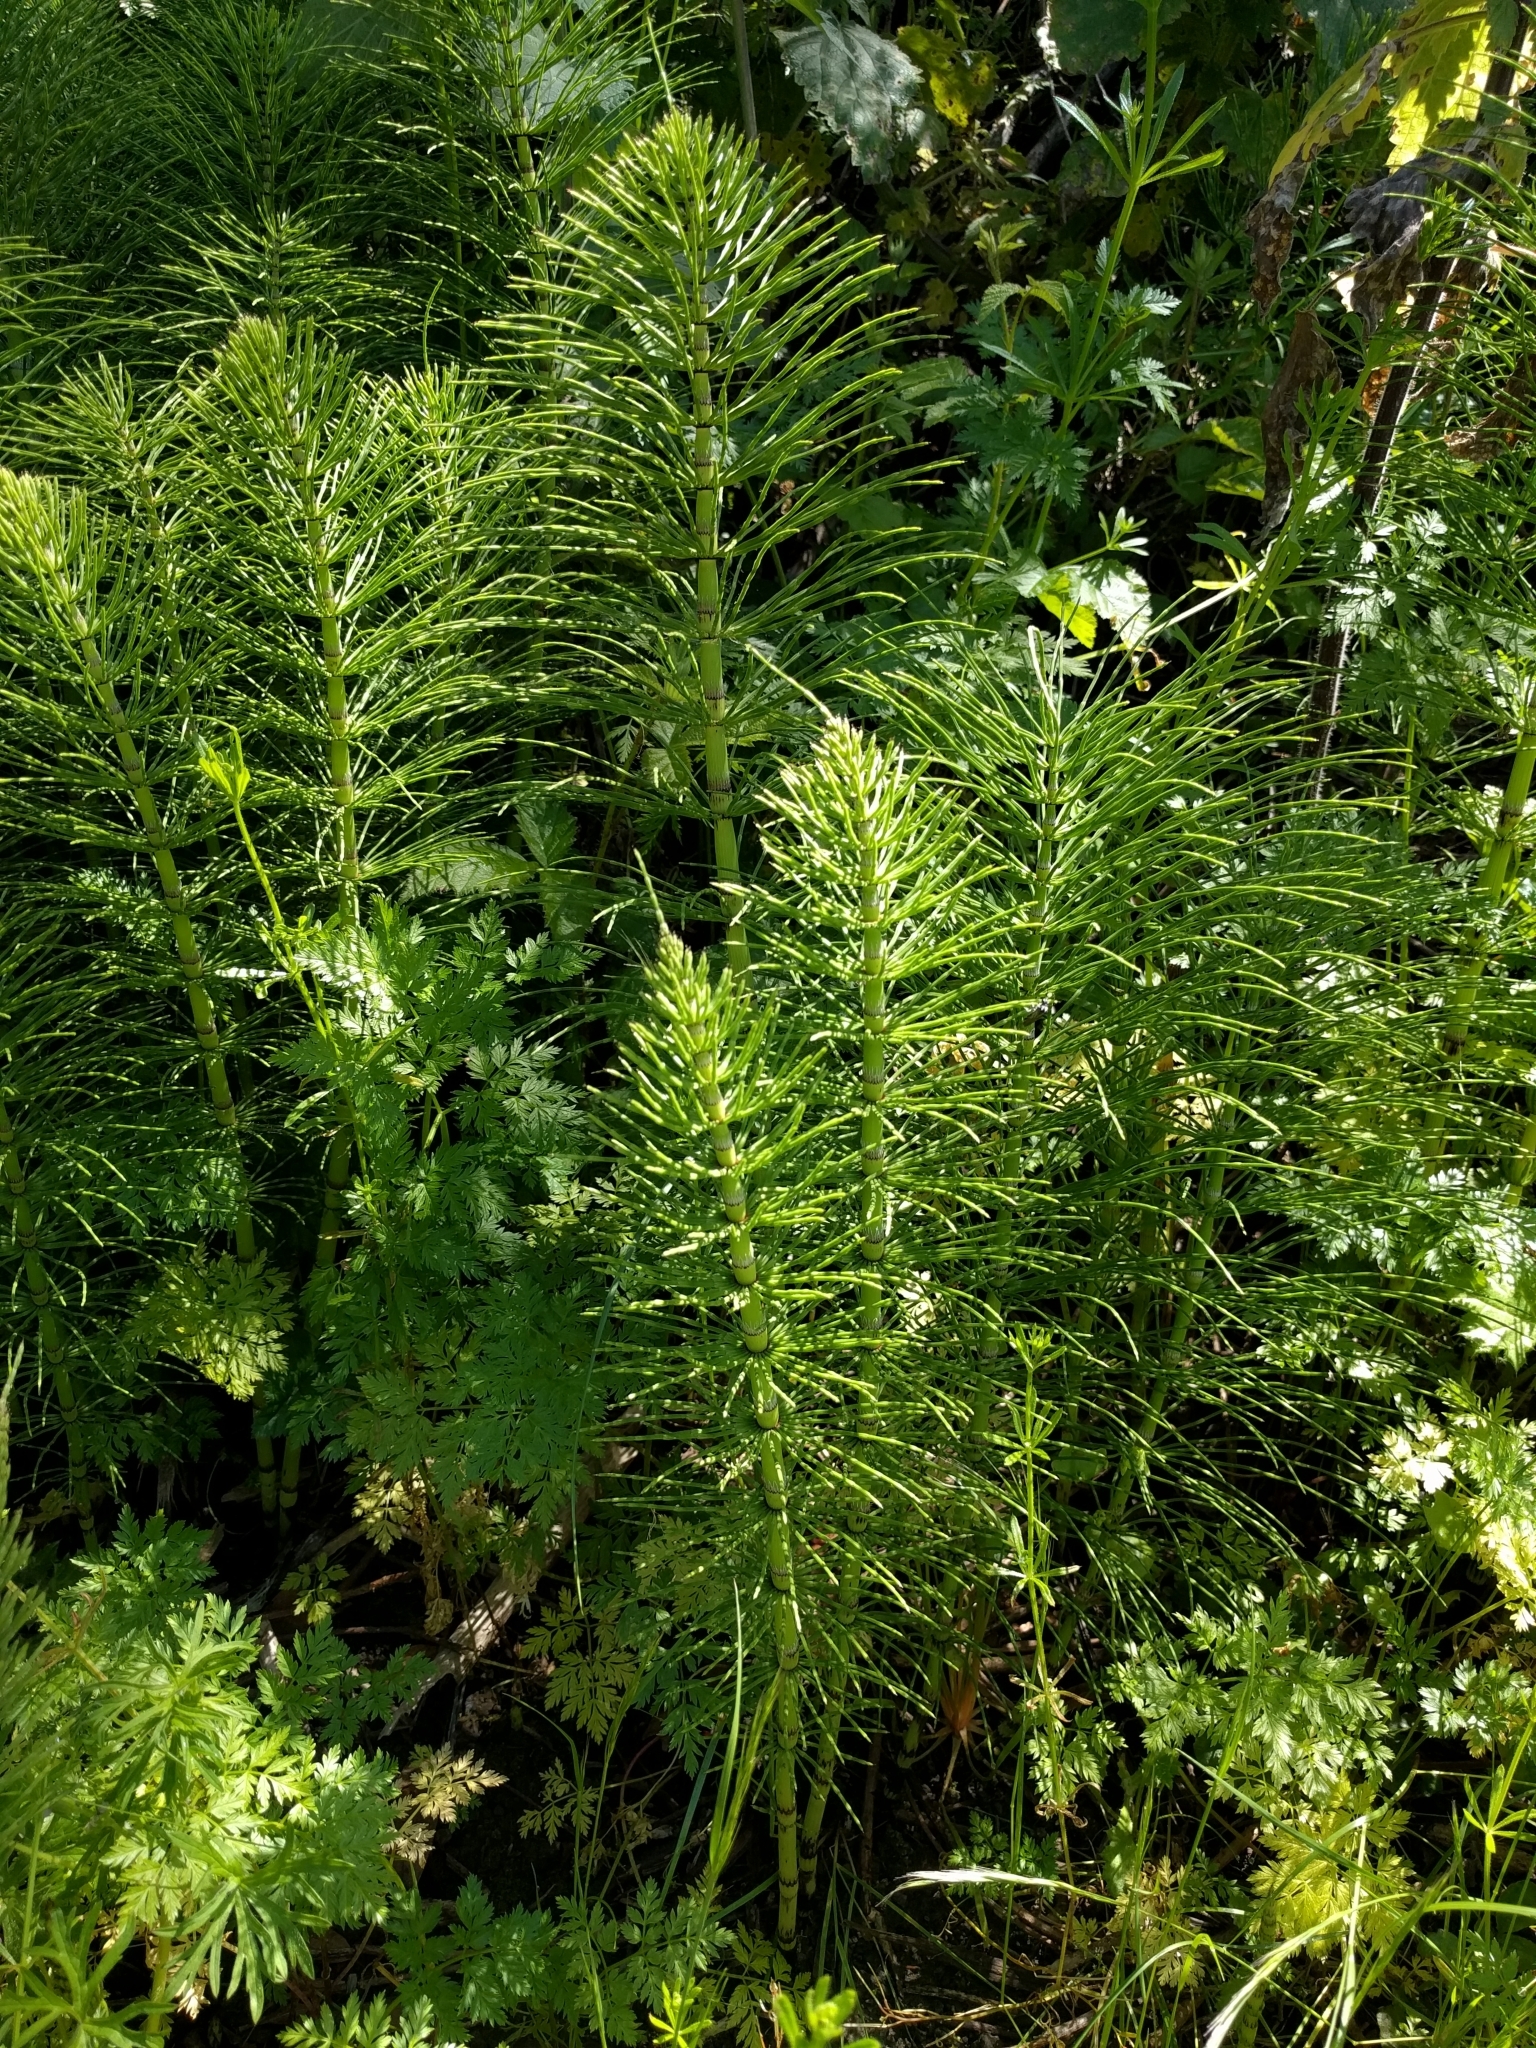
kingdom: Plantae
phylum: Tracheophyta
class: Polypodiopsida
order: Equisetales
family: Equisetaceae
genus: Equisetum
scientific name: Equisetum telmateia
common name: Great horsetail
